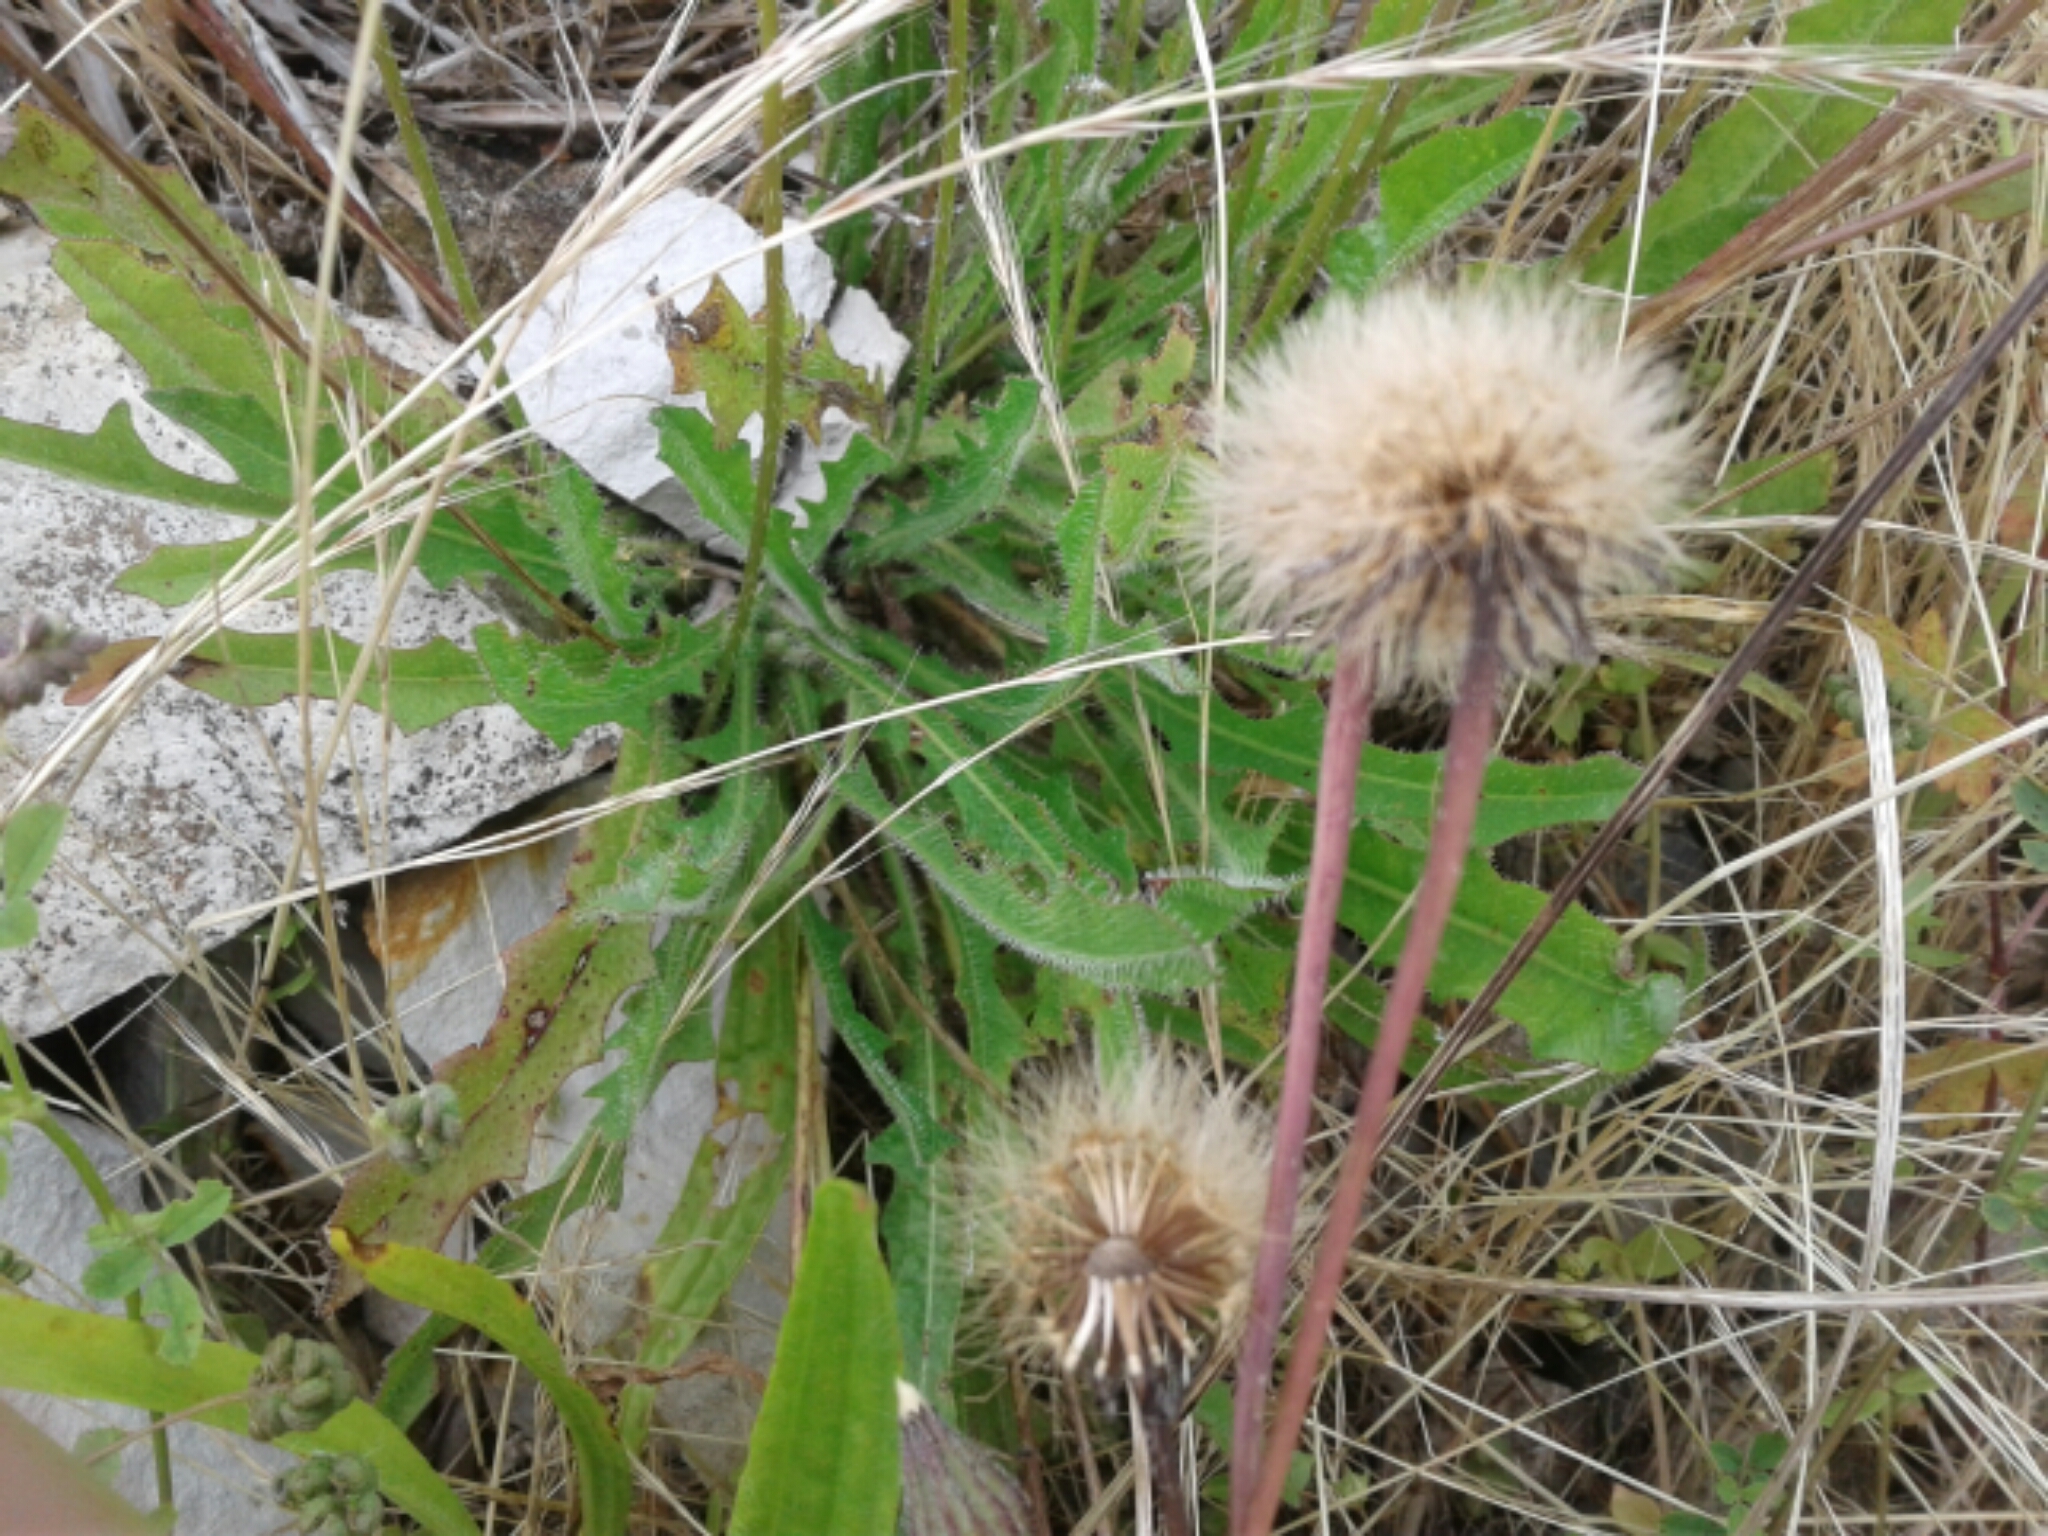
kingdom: Plantae
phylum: Tracheophyta
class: Magnoliopsida
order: Asterales
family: Asteraceae
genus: Hypochaeris
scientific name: Hypochaeris radicata
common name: Flatweed
